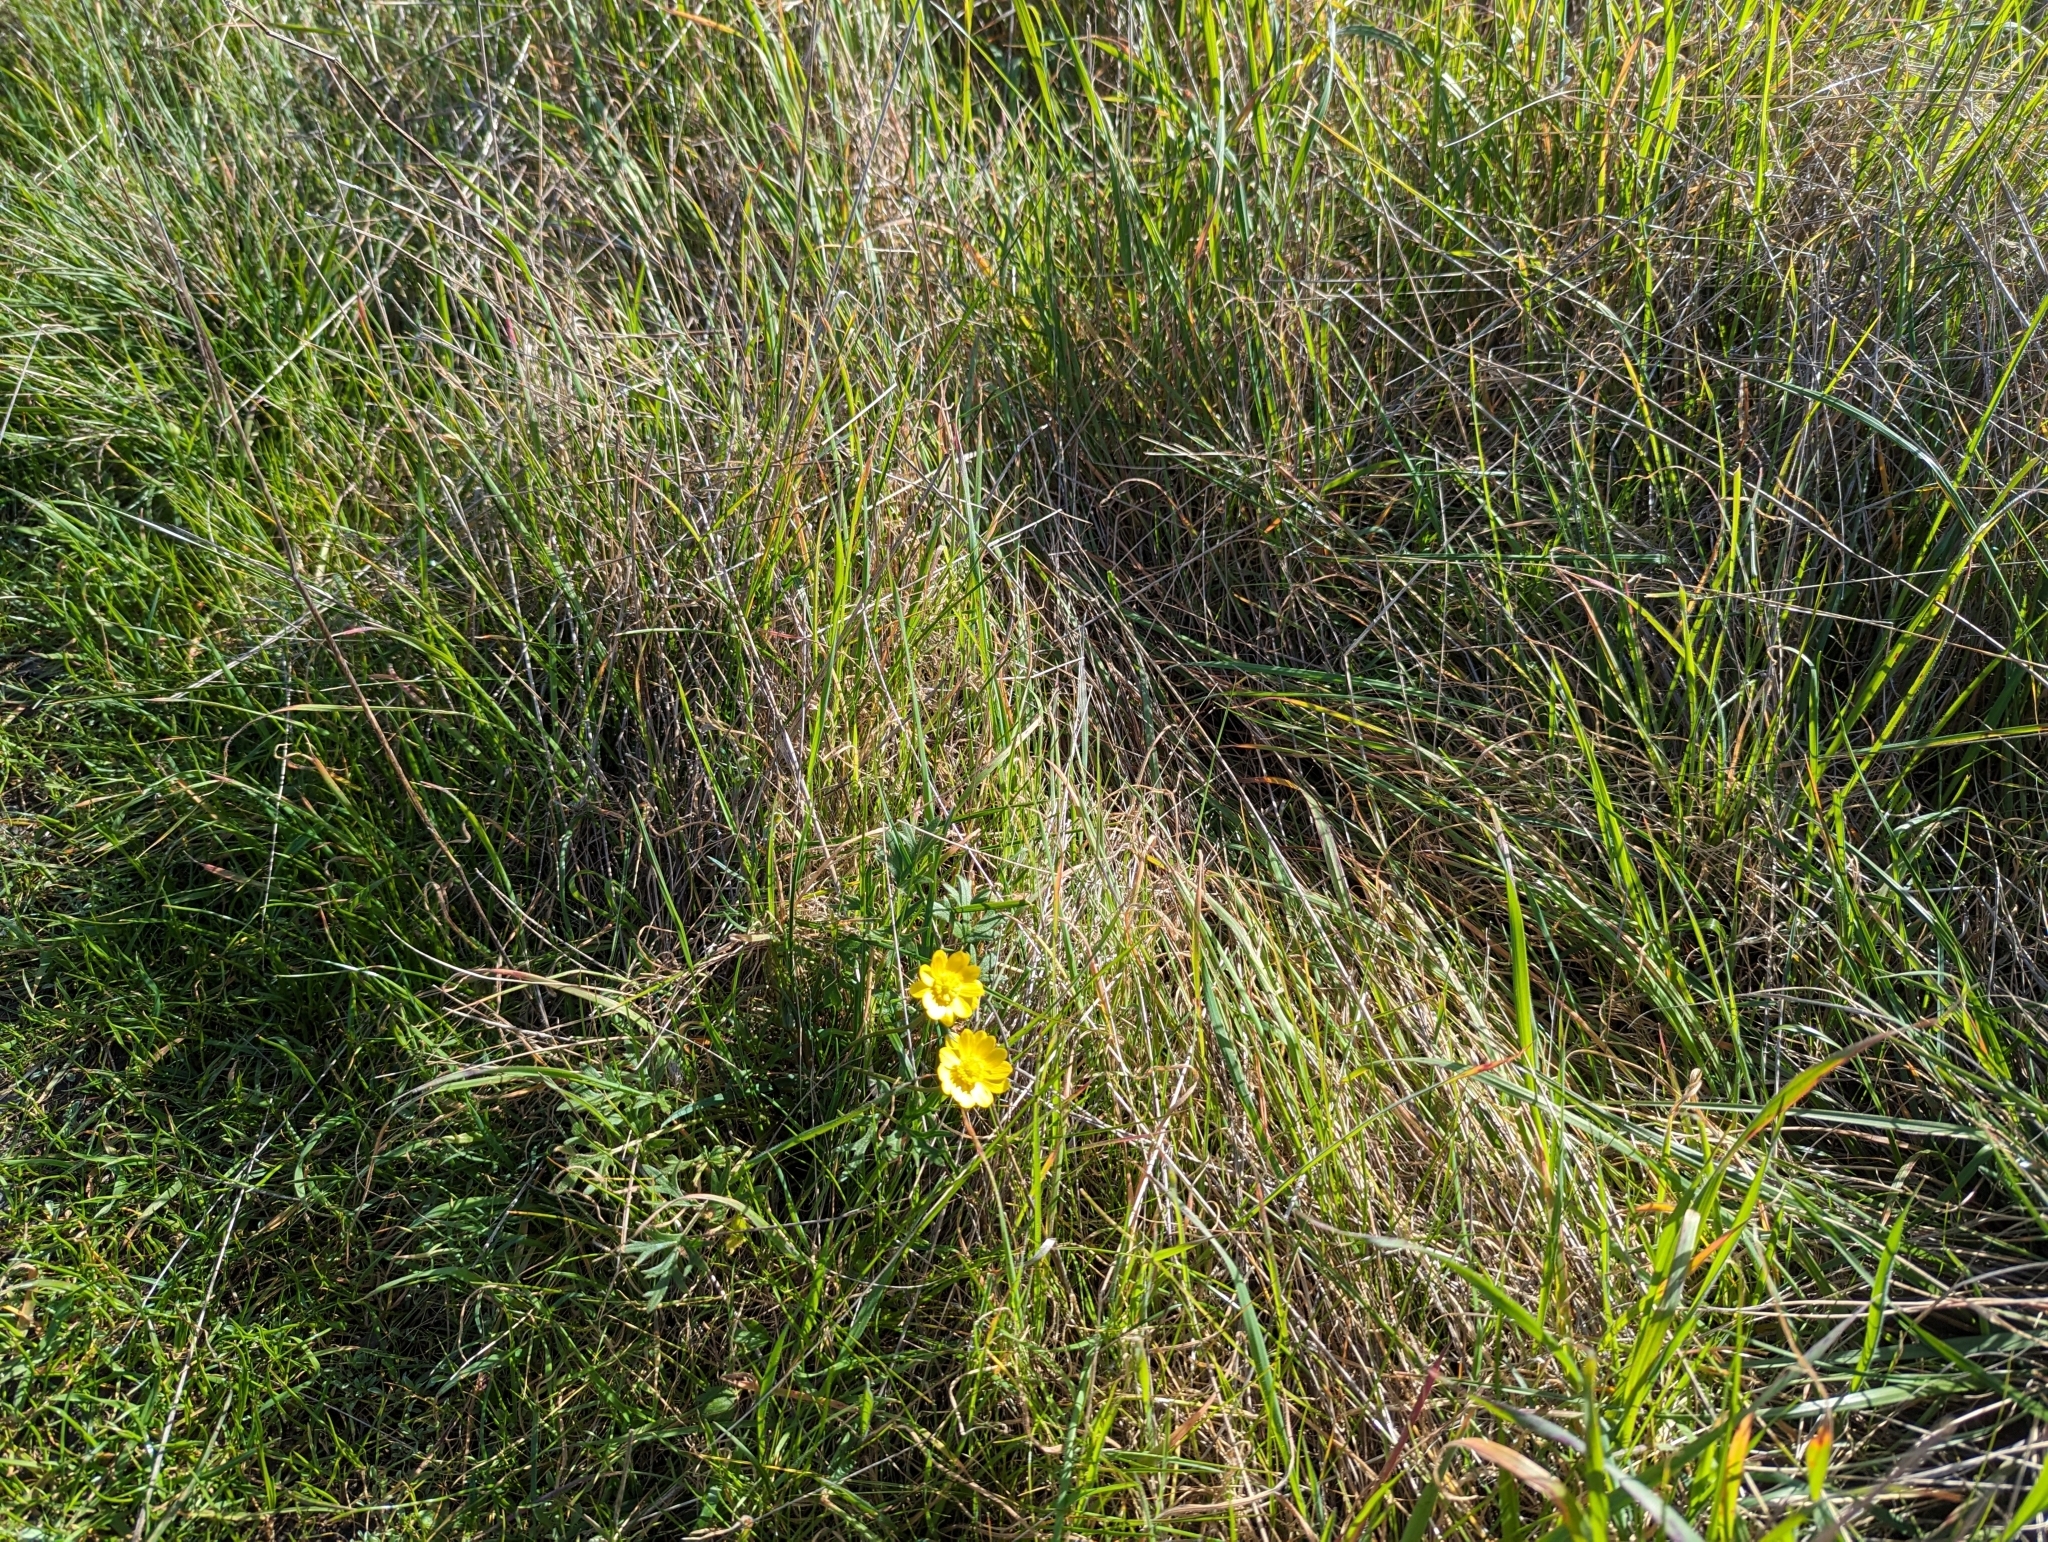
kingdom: Plantae
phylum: Tracheophyta
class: Magnoliopsida
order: Ranunculales
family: Ranunculaceae
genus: Ranunculus
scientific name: Ranunculus californicus
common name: California buttercup
